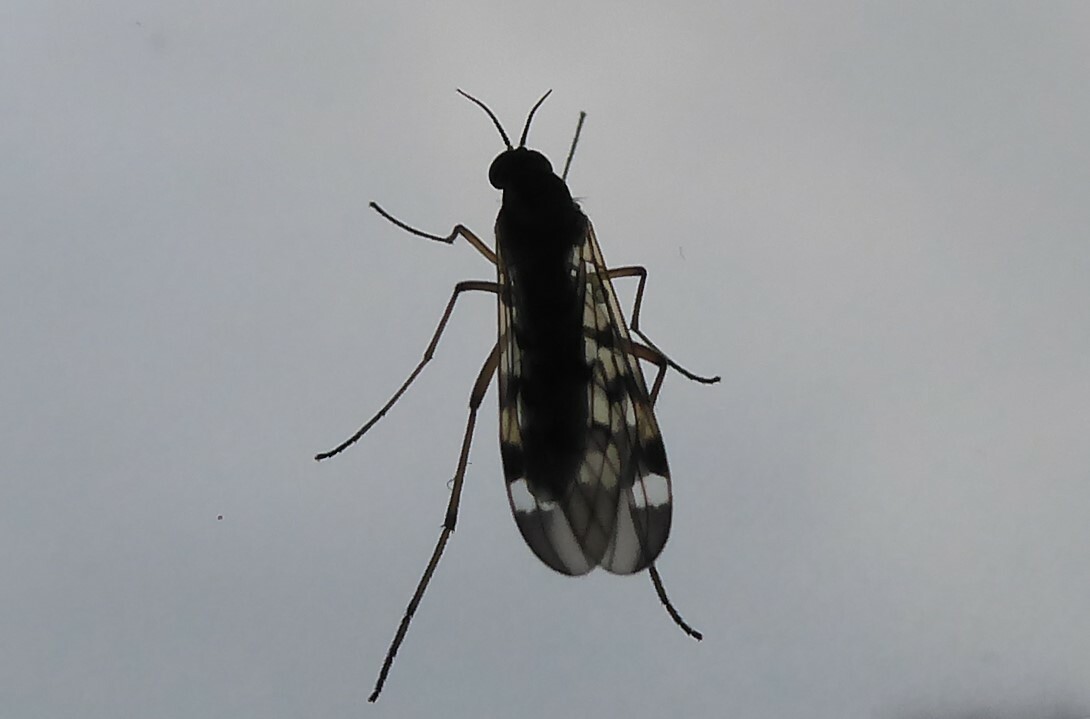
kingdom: Animalia
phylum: Arthropoda
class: Insecta
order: Diptera
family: Anisopodidae
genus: Sylvicola
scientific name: Sylvicola notatus
